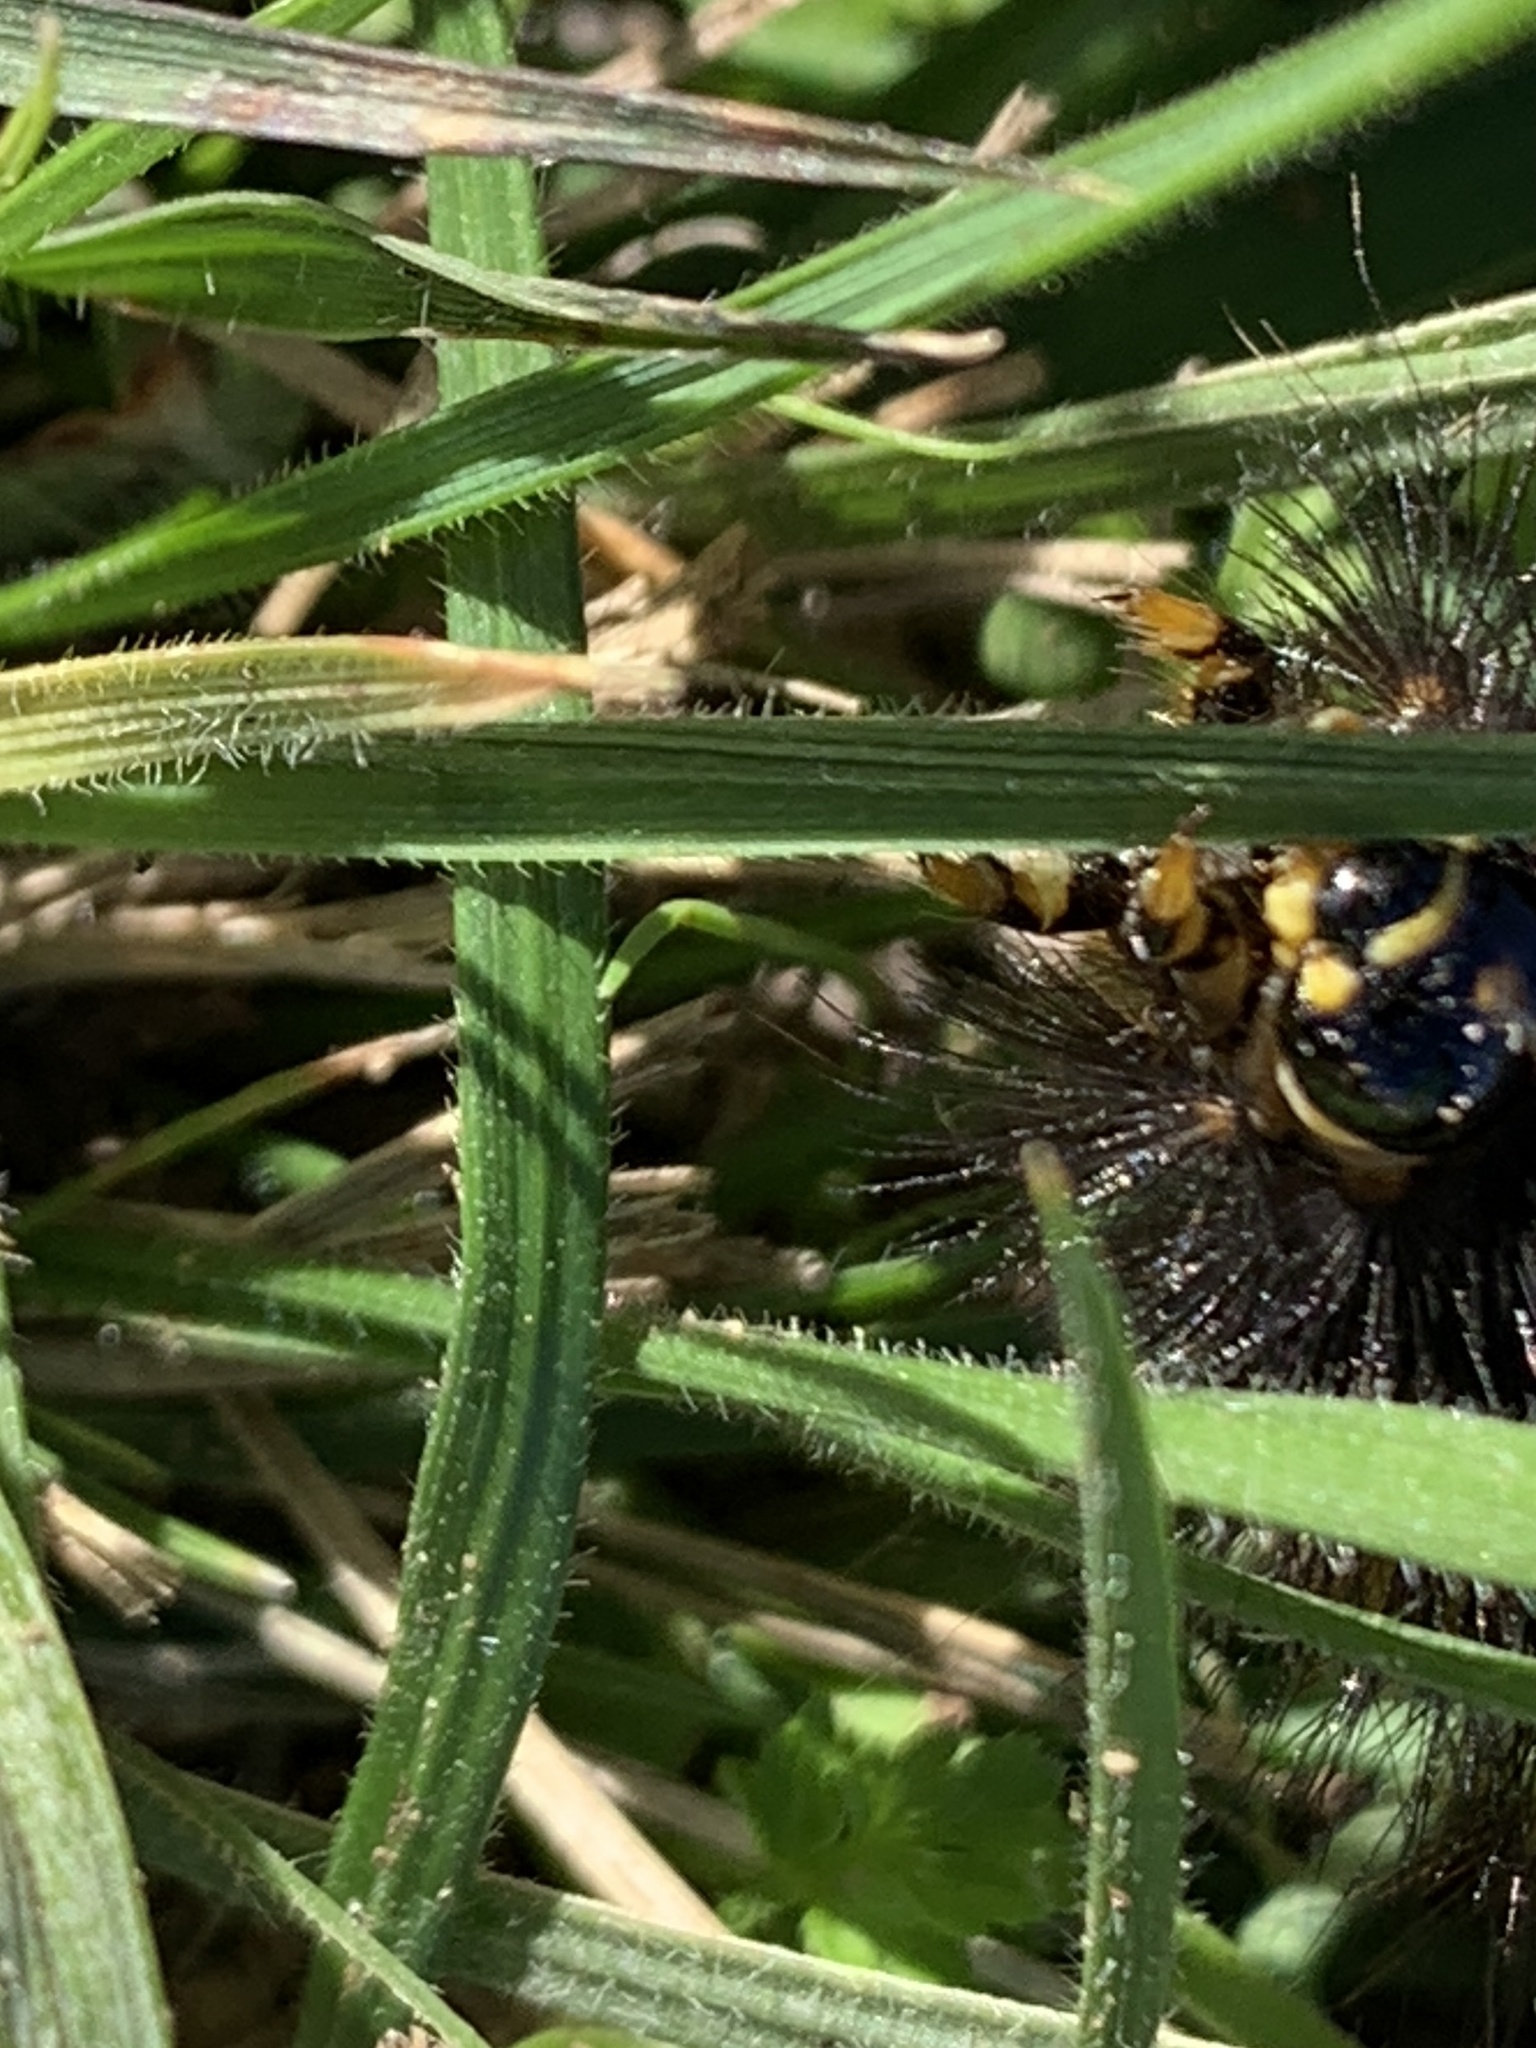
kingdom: Animalia
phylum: Arthropoda
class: Insecta
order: Lepidoptera
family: Erebidae
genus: Estigmene
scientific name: Estigmene acrea
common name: Salt marsh moth
